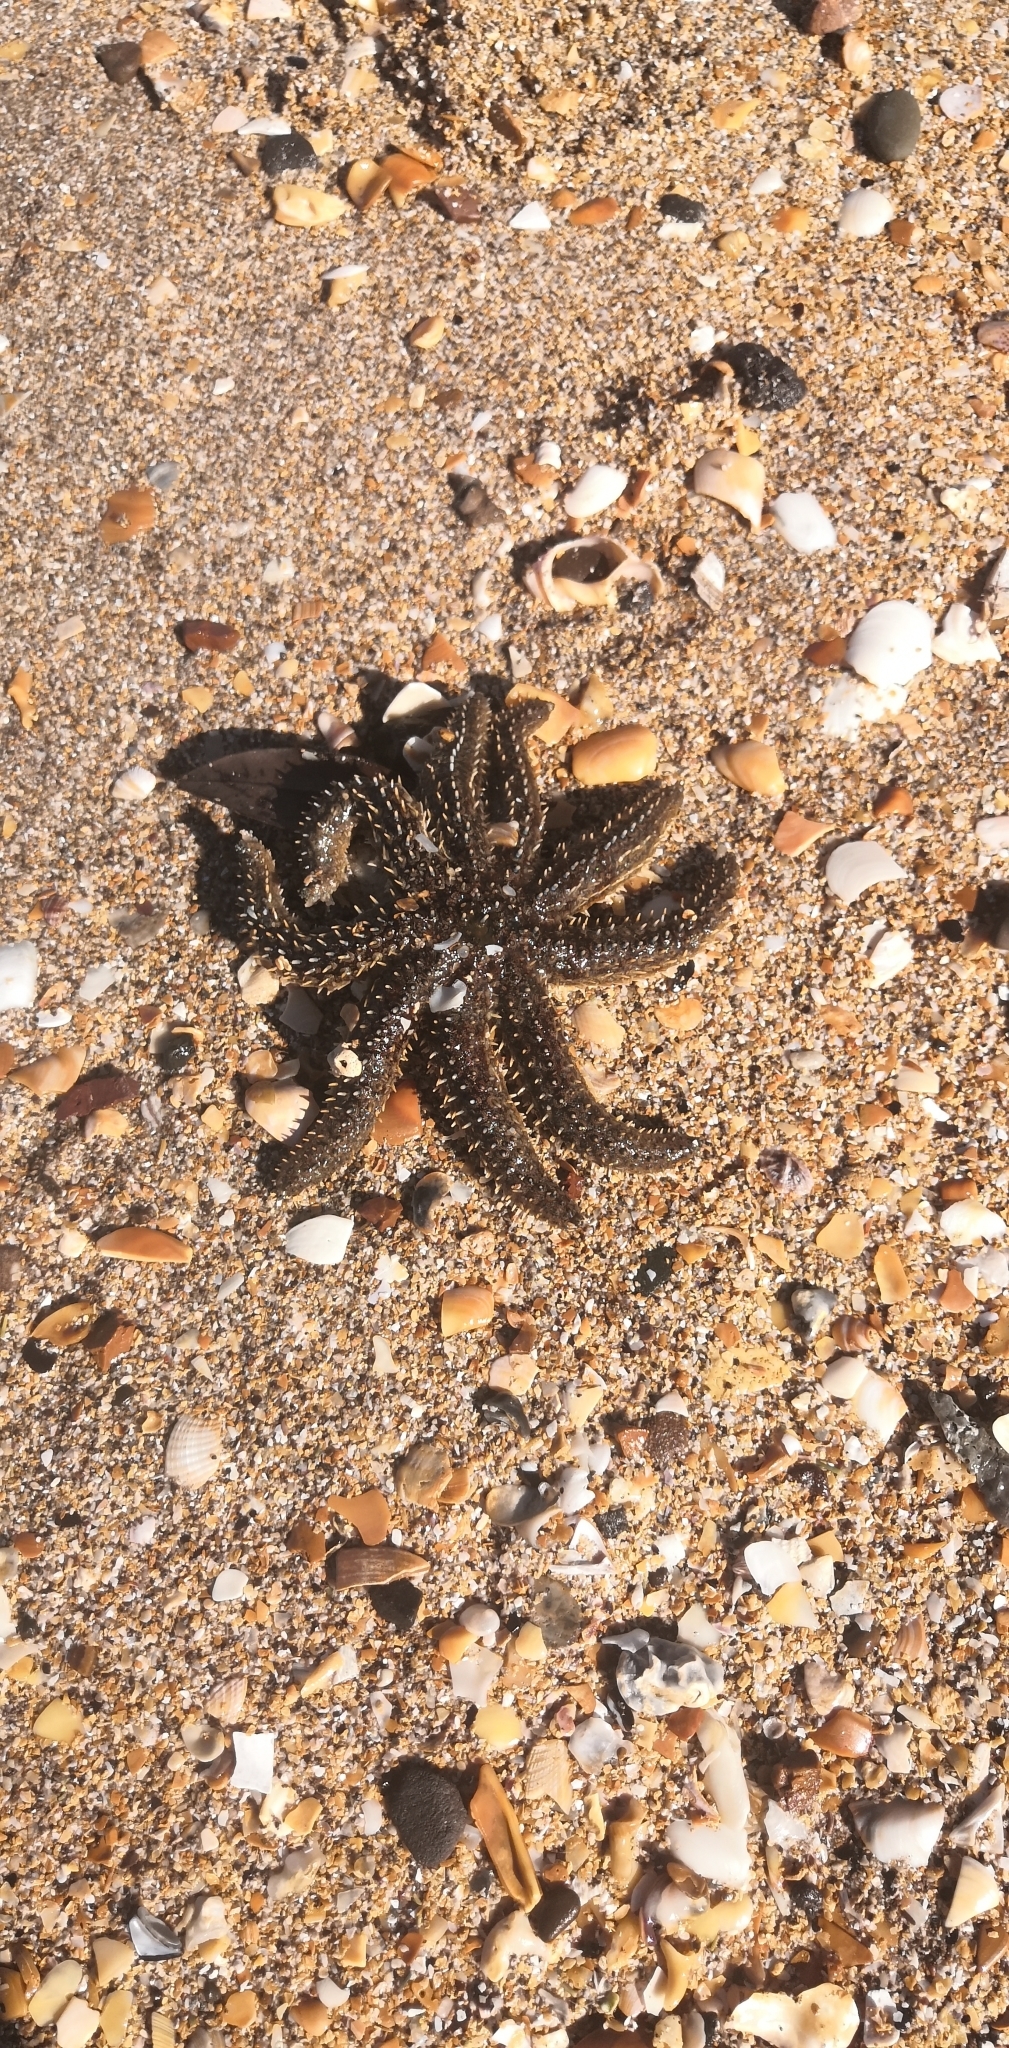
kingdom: Animalia
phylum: Echinodermata
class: Asteroidea
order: Forcipulatida
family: Asteriidae
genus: Coscinasterias
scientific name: Coscinasterias muricata
